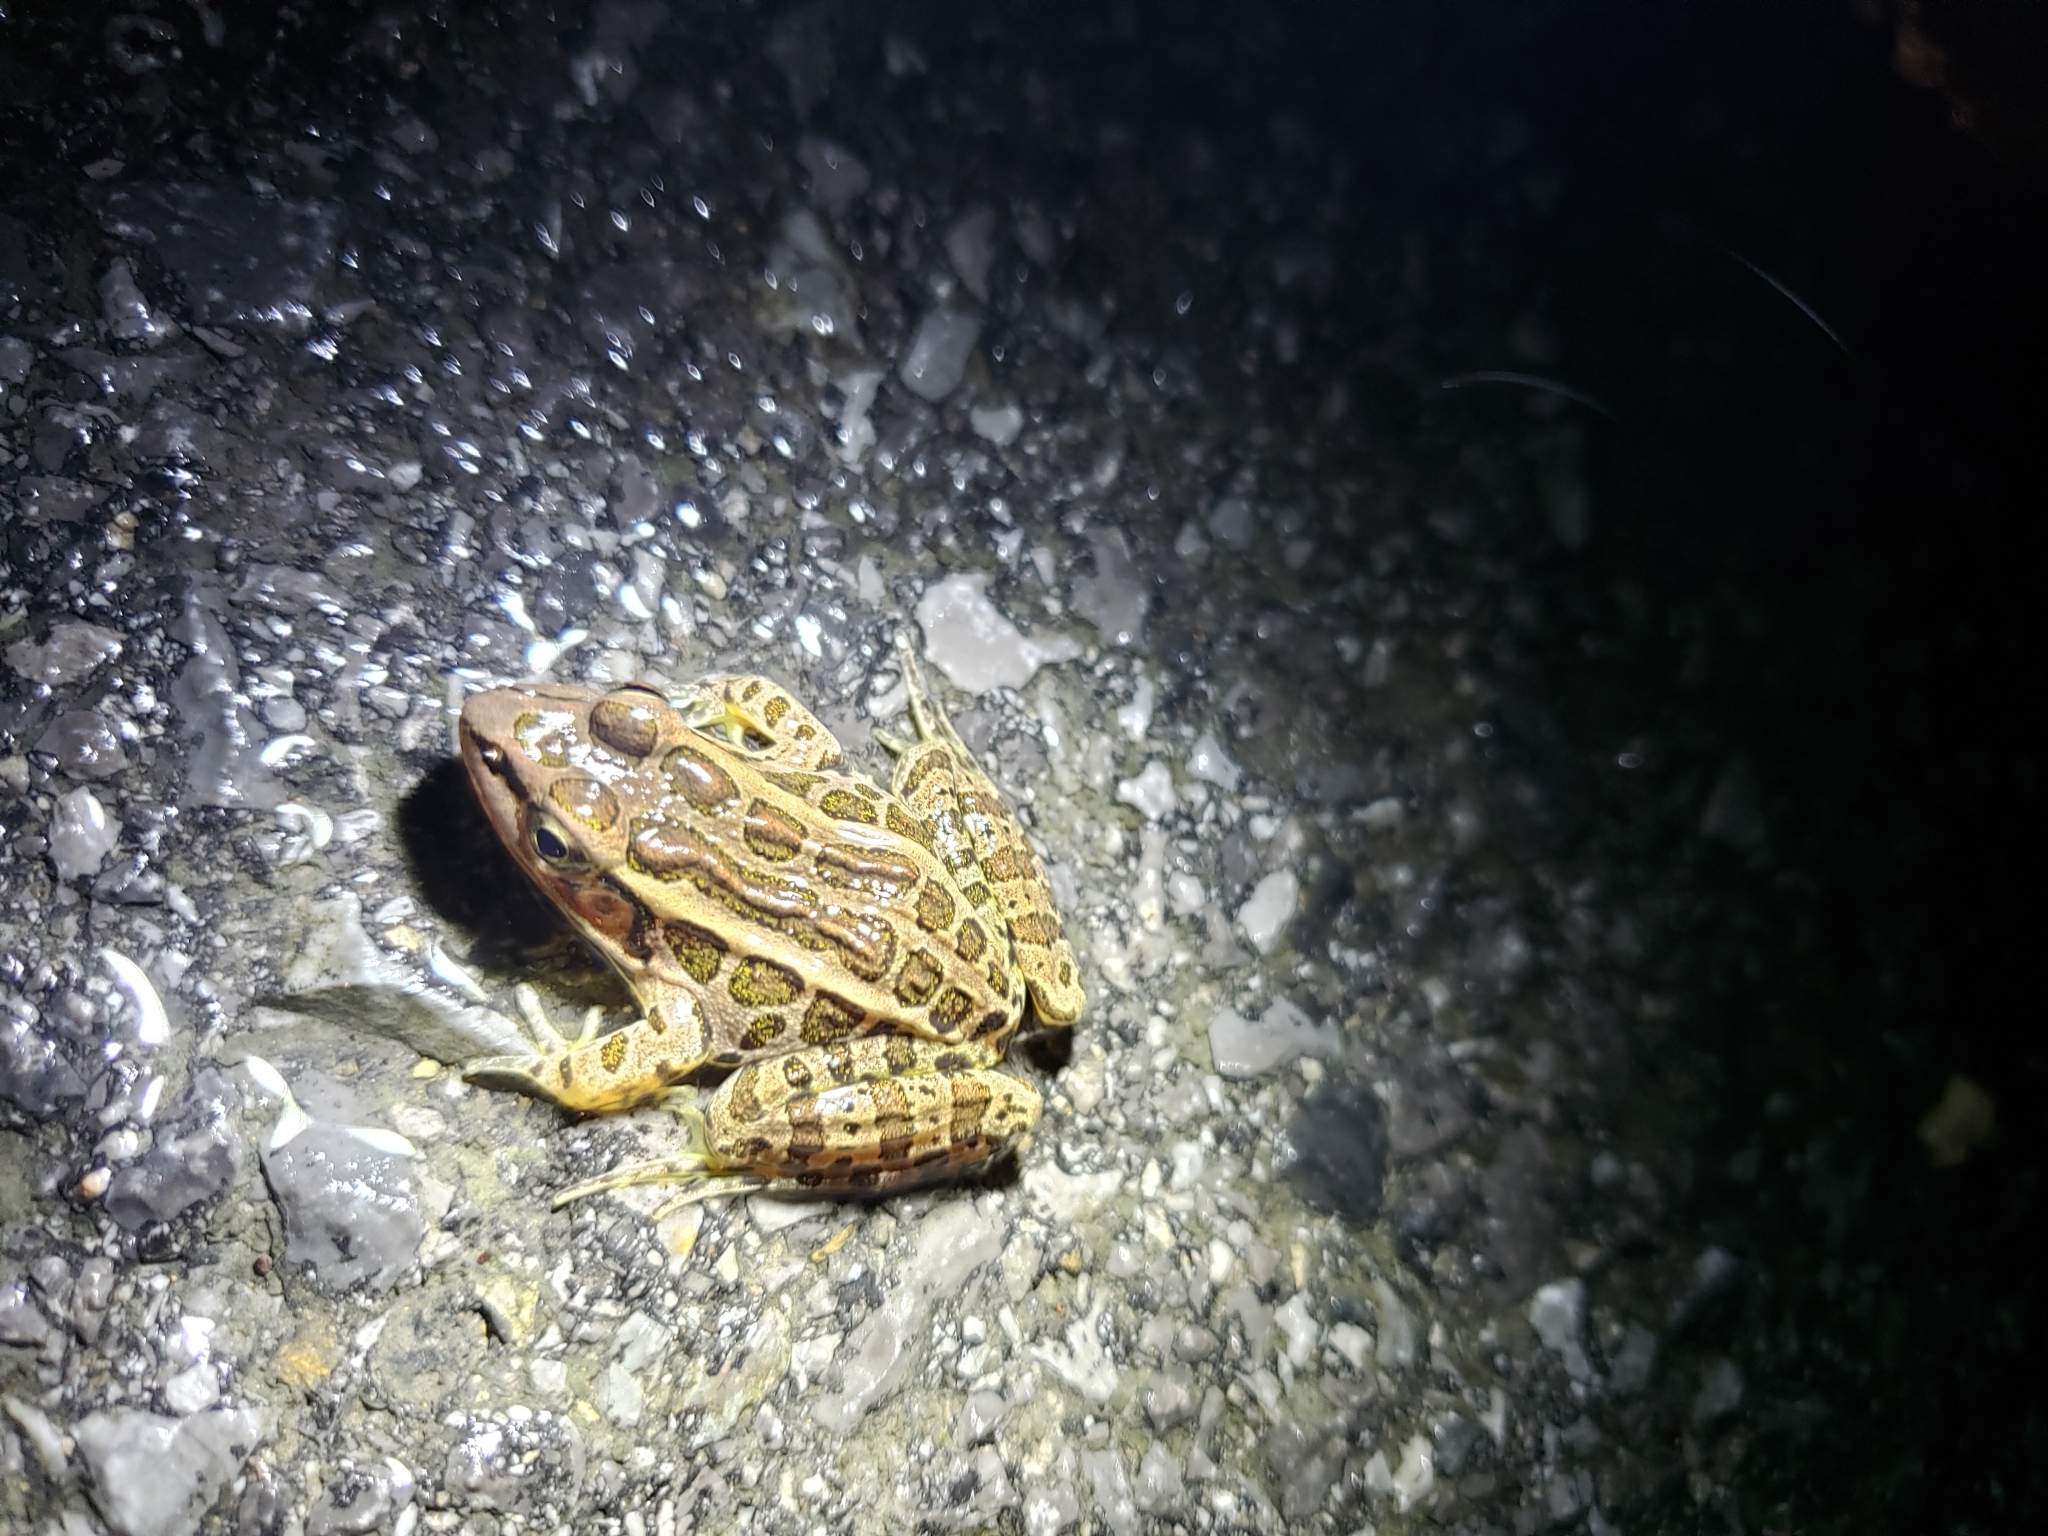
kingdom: Animalia
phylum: Chordata
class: Amphibia
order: Anura
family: Ranidae
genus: Lithobates
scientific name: Lithobates palustris
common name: Pickerel frog
